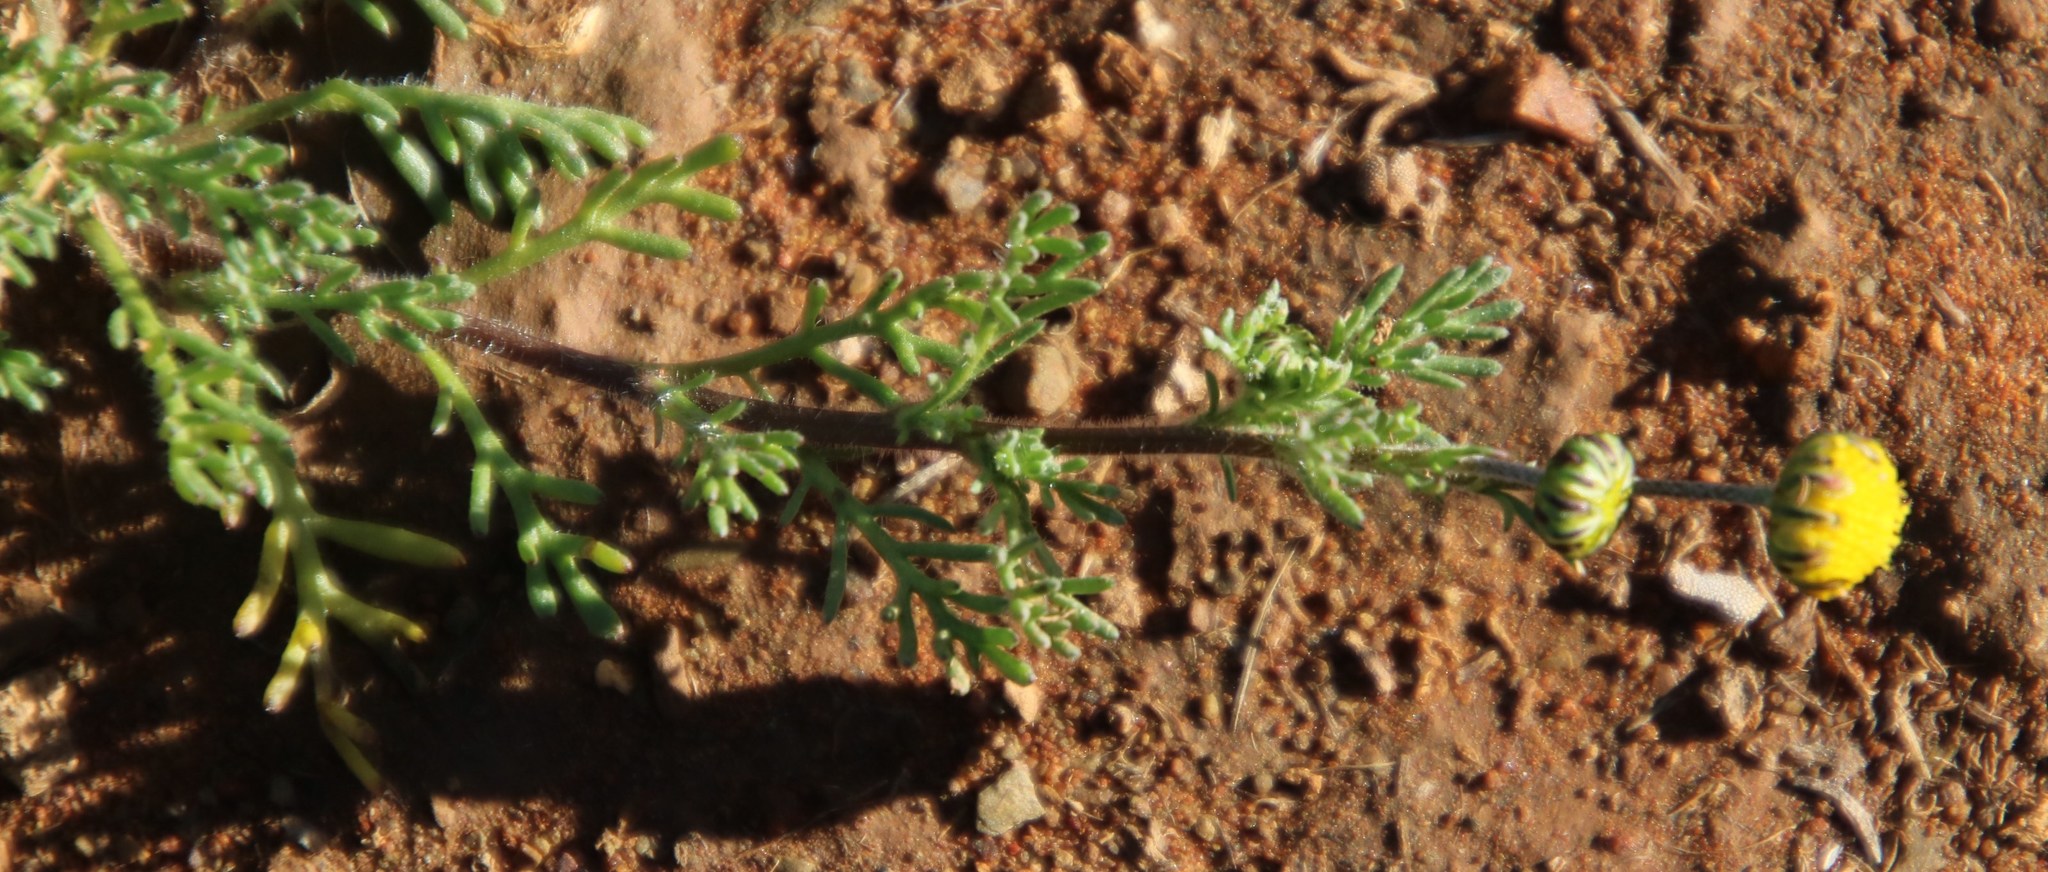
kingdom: Plantae
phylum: Tracheophyta
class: Magnoliopsida
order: Asterales
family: Asteraceae
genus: Foveolina
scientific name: Foveolina dichotoma
